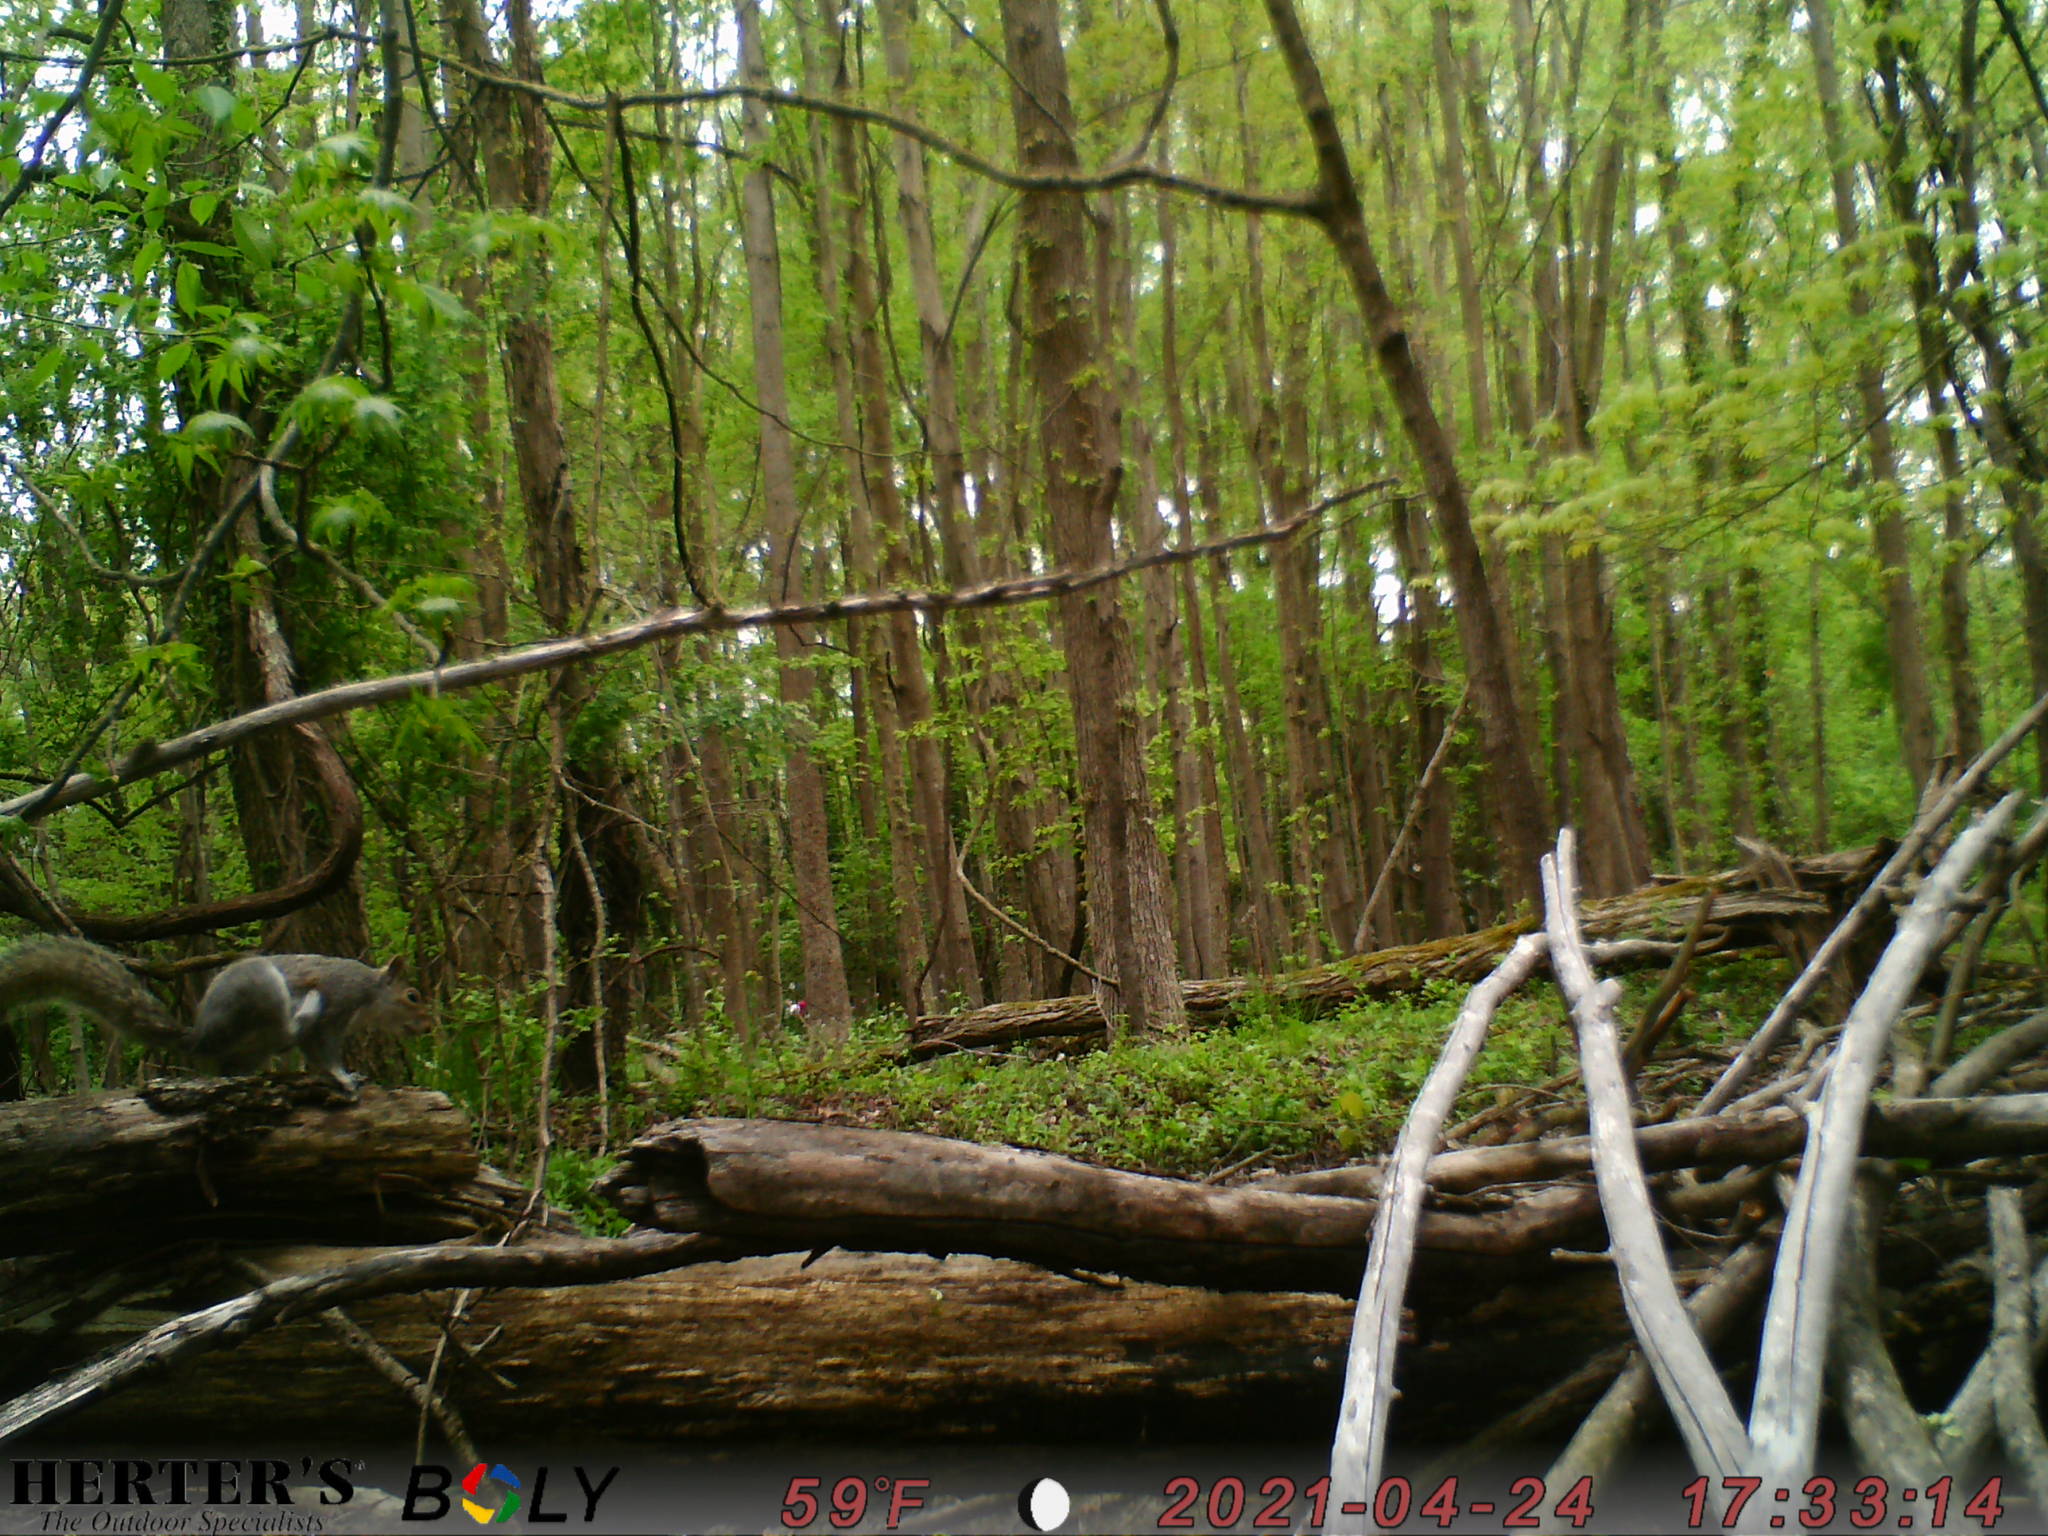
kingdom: Animalia
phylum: Chordata
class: Mammalia
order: Rodentia
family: Sciuridae
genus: Sciurus
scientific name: Sciurus carolinensis
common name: Eastern gray squirrel
